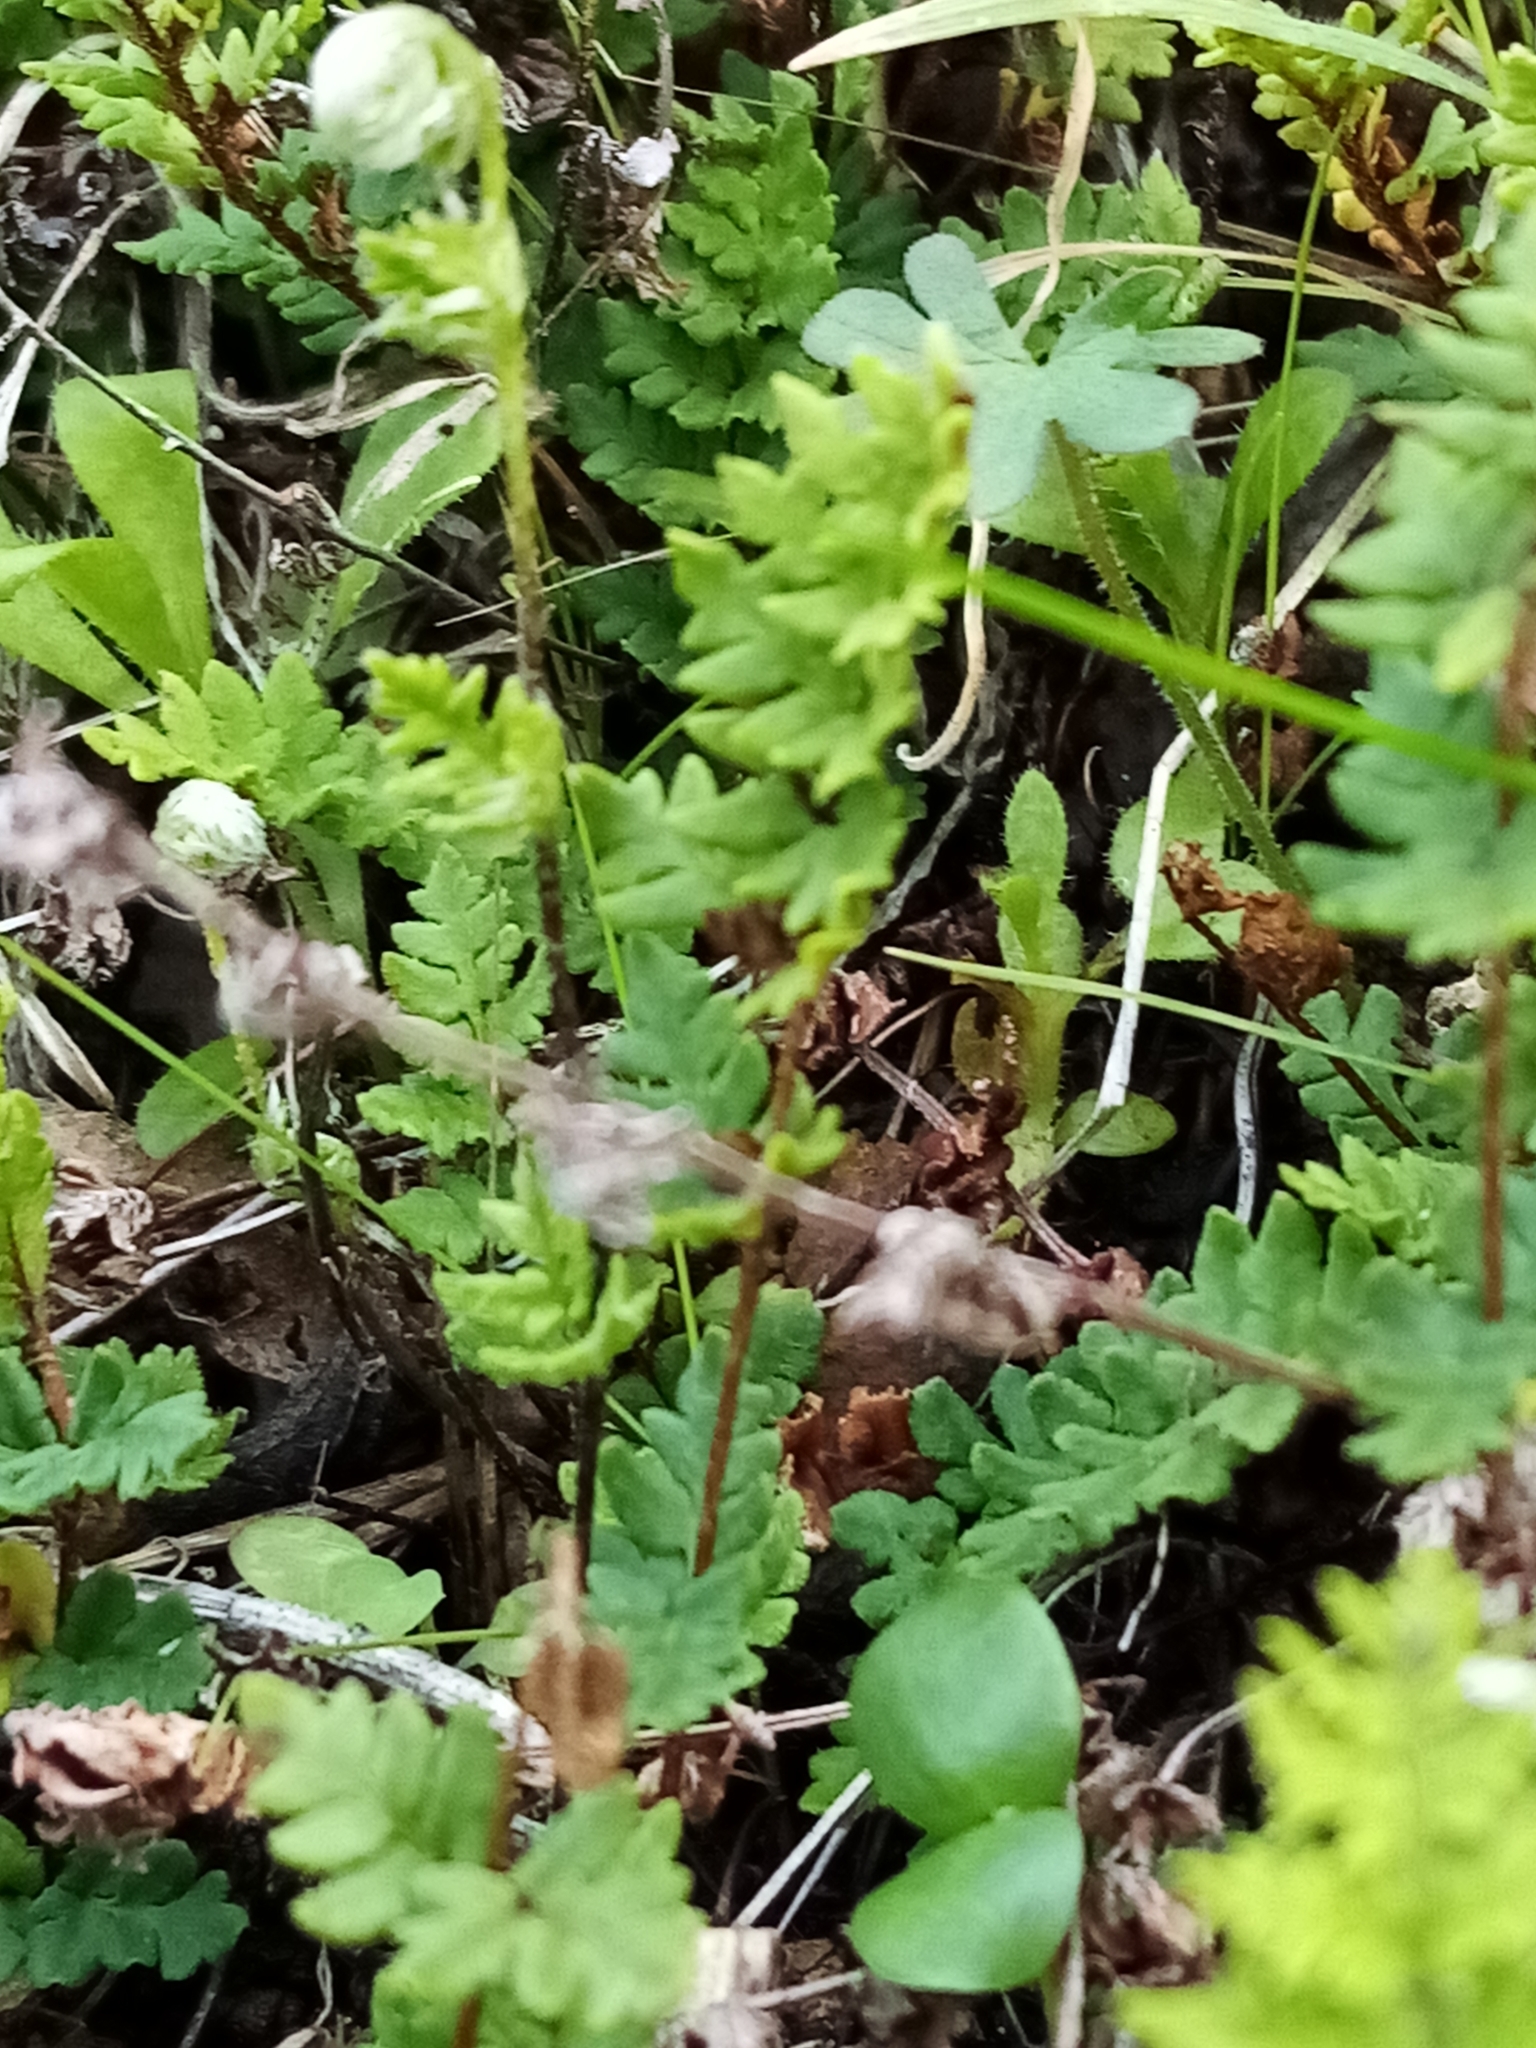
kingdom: Plantae
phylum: Tracheophyta
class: Polypodiopsida
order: Polypodiales
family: Pteridaceae
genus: Cheilanthes
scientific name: Cheilanthes sieberi
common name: Mulga fern
